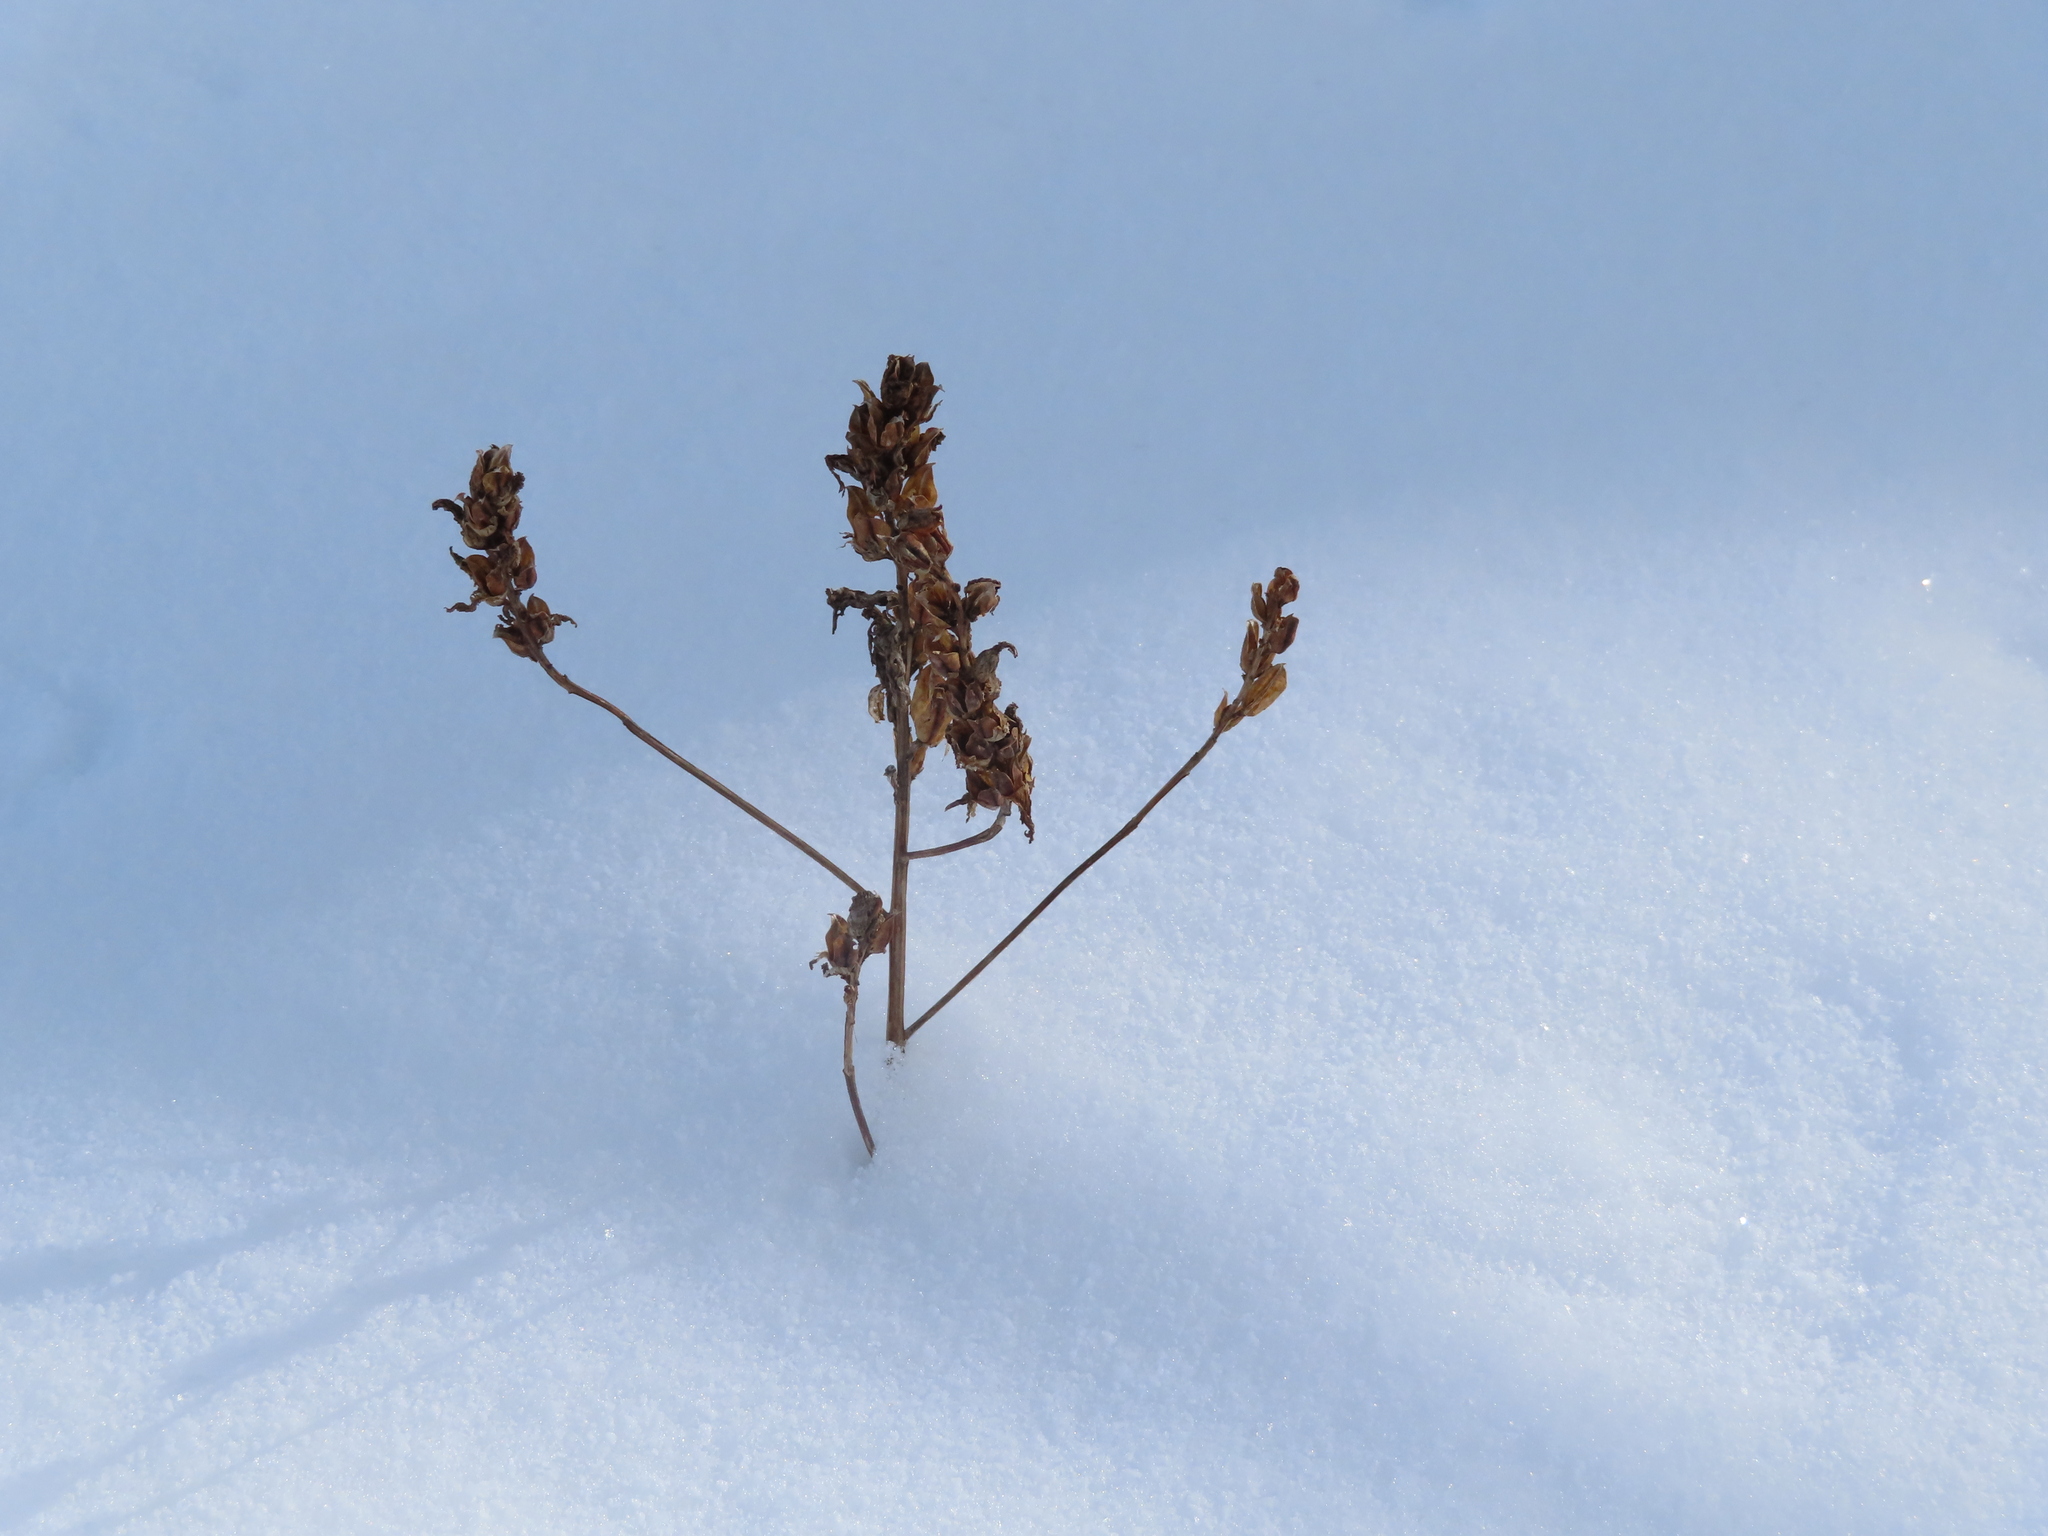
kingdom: Plantae
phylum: Tracheophyta
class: Magnoliopsida
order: Lamiales
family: Lamiaceae
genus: Prunella
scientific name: Prunella vulgaris
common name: Heal-all
